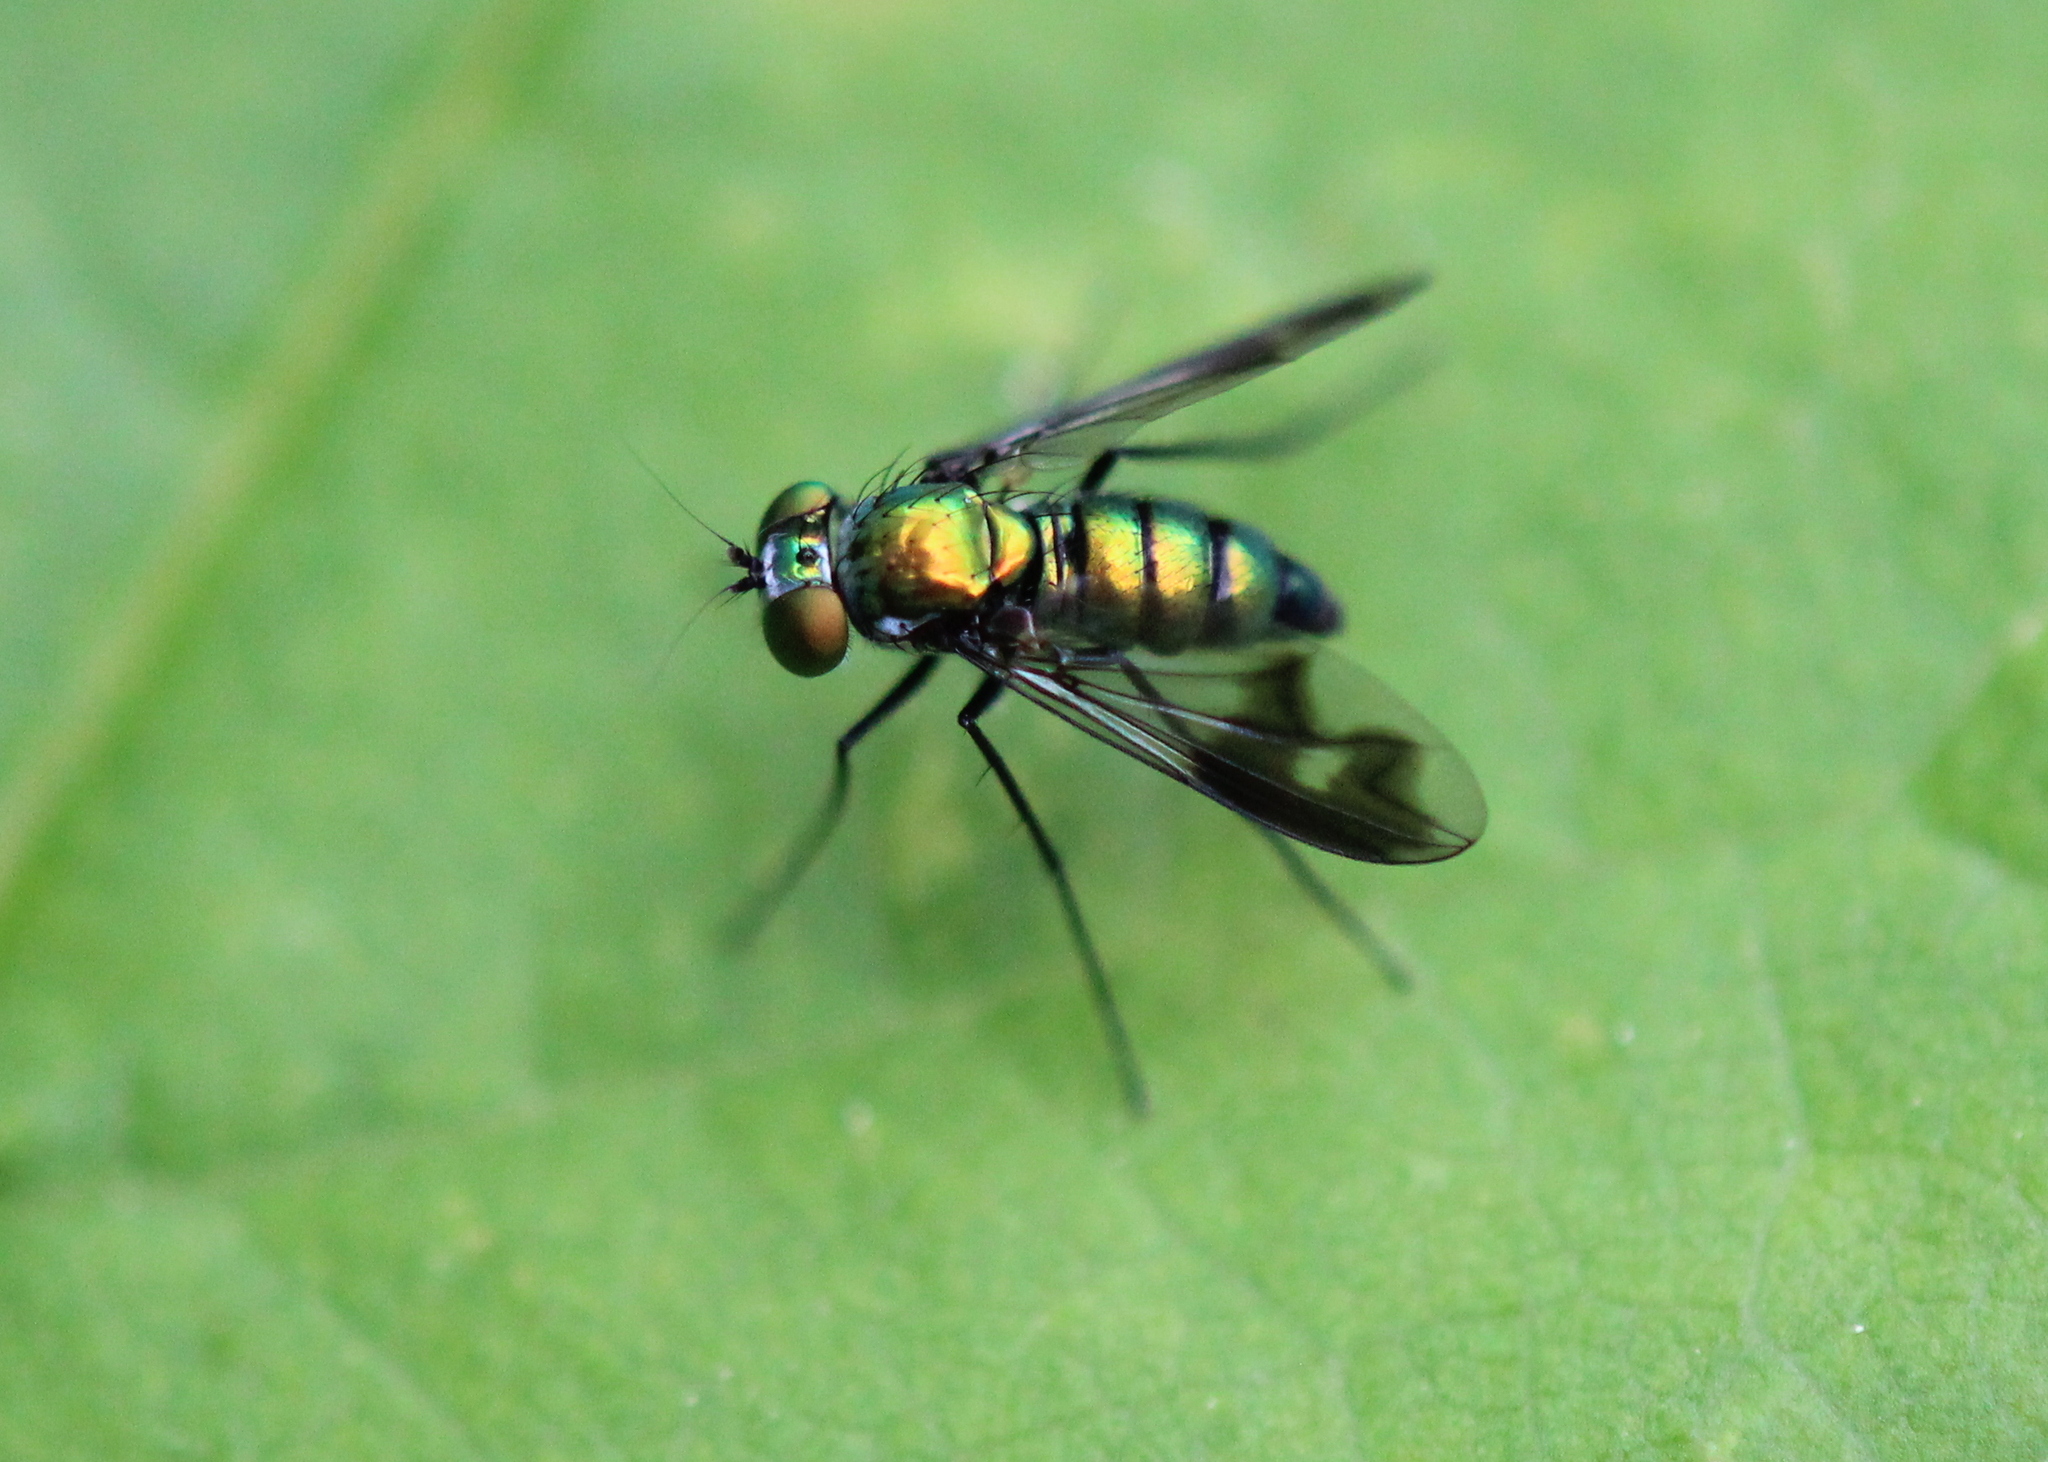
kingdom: Animalia
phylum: Arthropoda
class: Insecta
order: Diptera
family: Dolichopodidae
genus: Condylostylus
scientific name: Condylostylus patibulatus
